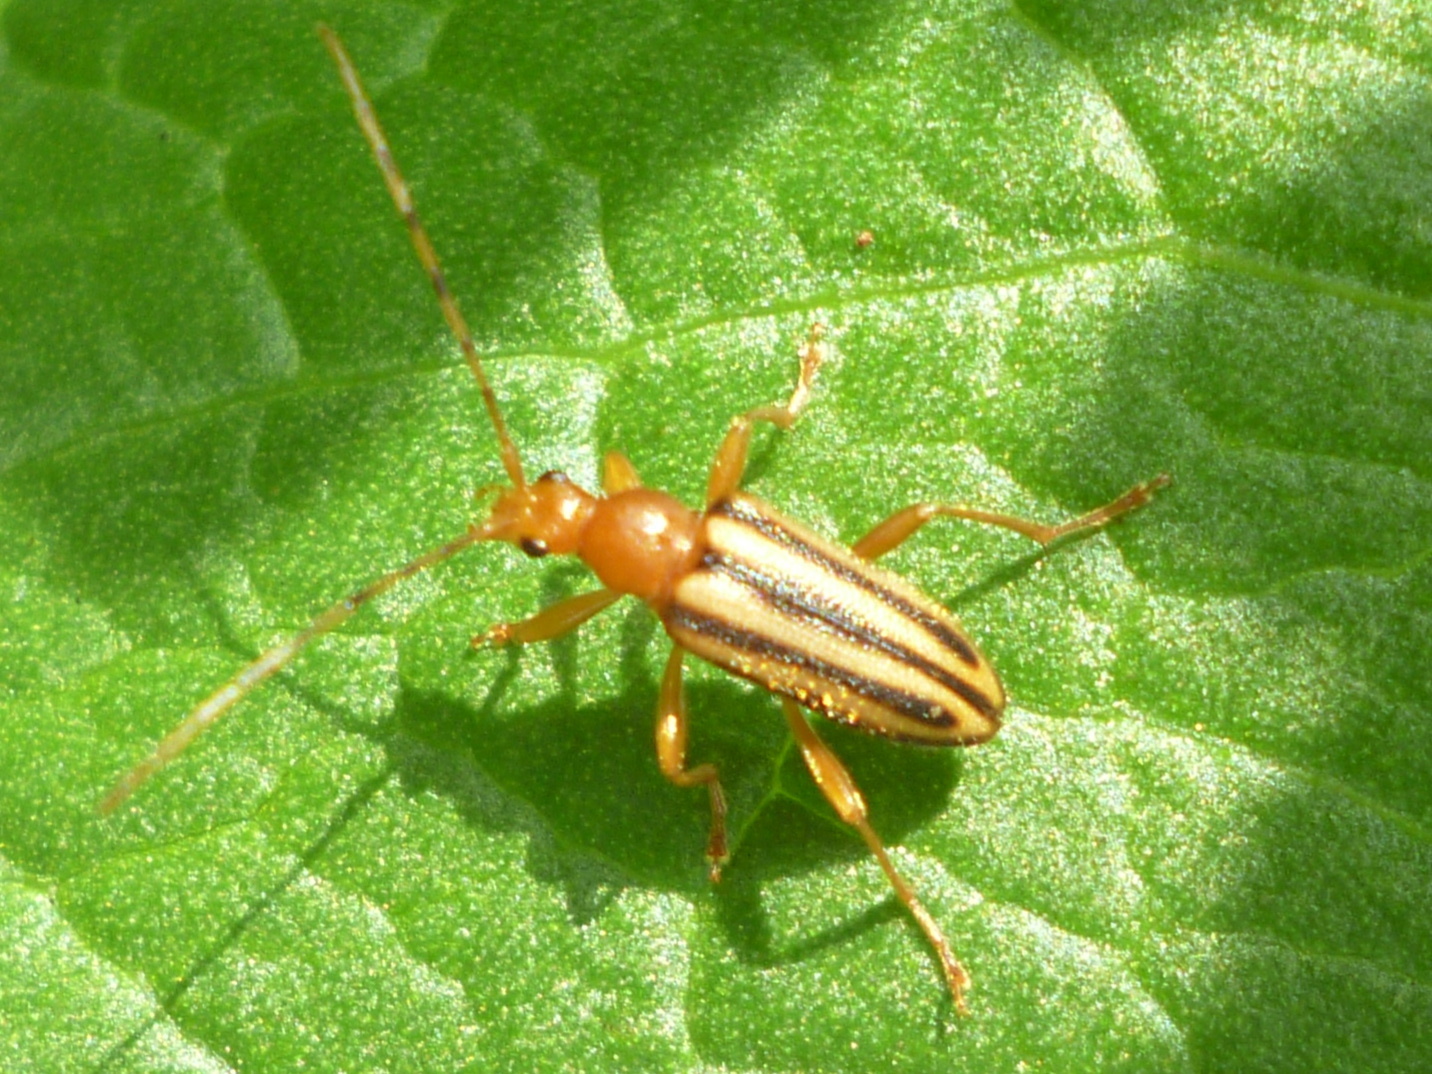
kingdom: Animalia
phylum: Arthropoda
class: Insecta
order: Coleoptera
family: Cerambycidae
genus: Metacmaeops
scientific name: Metacmaeops vittata
